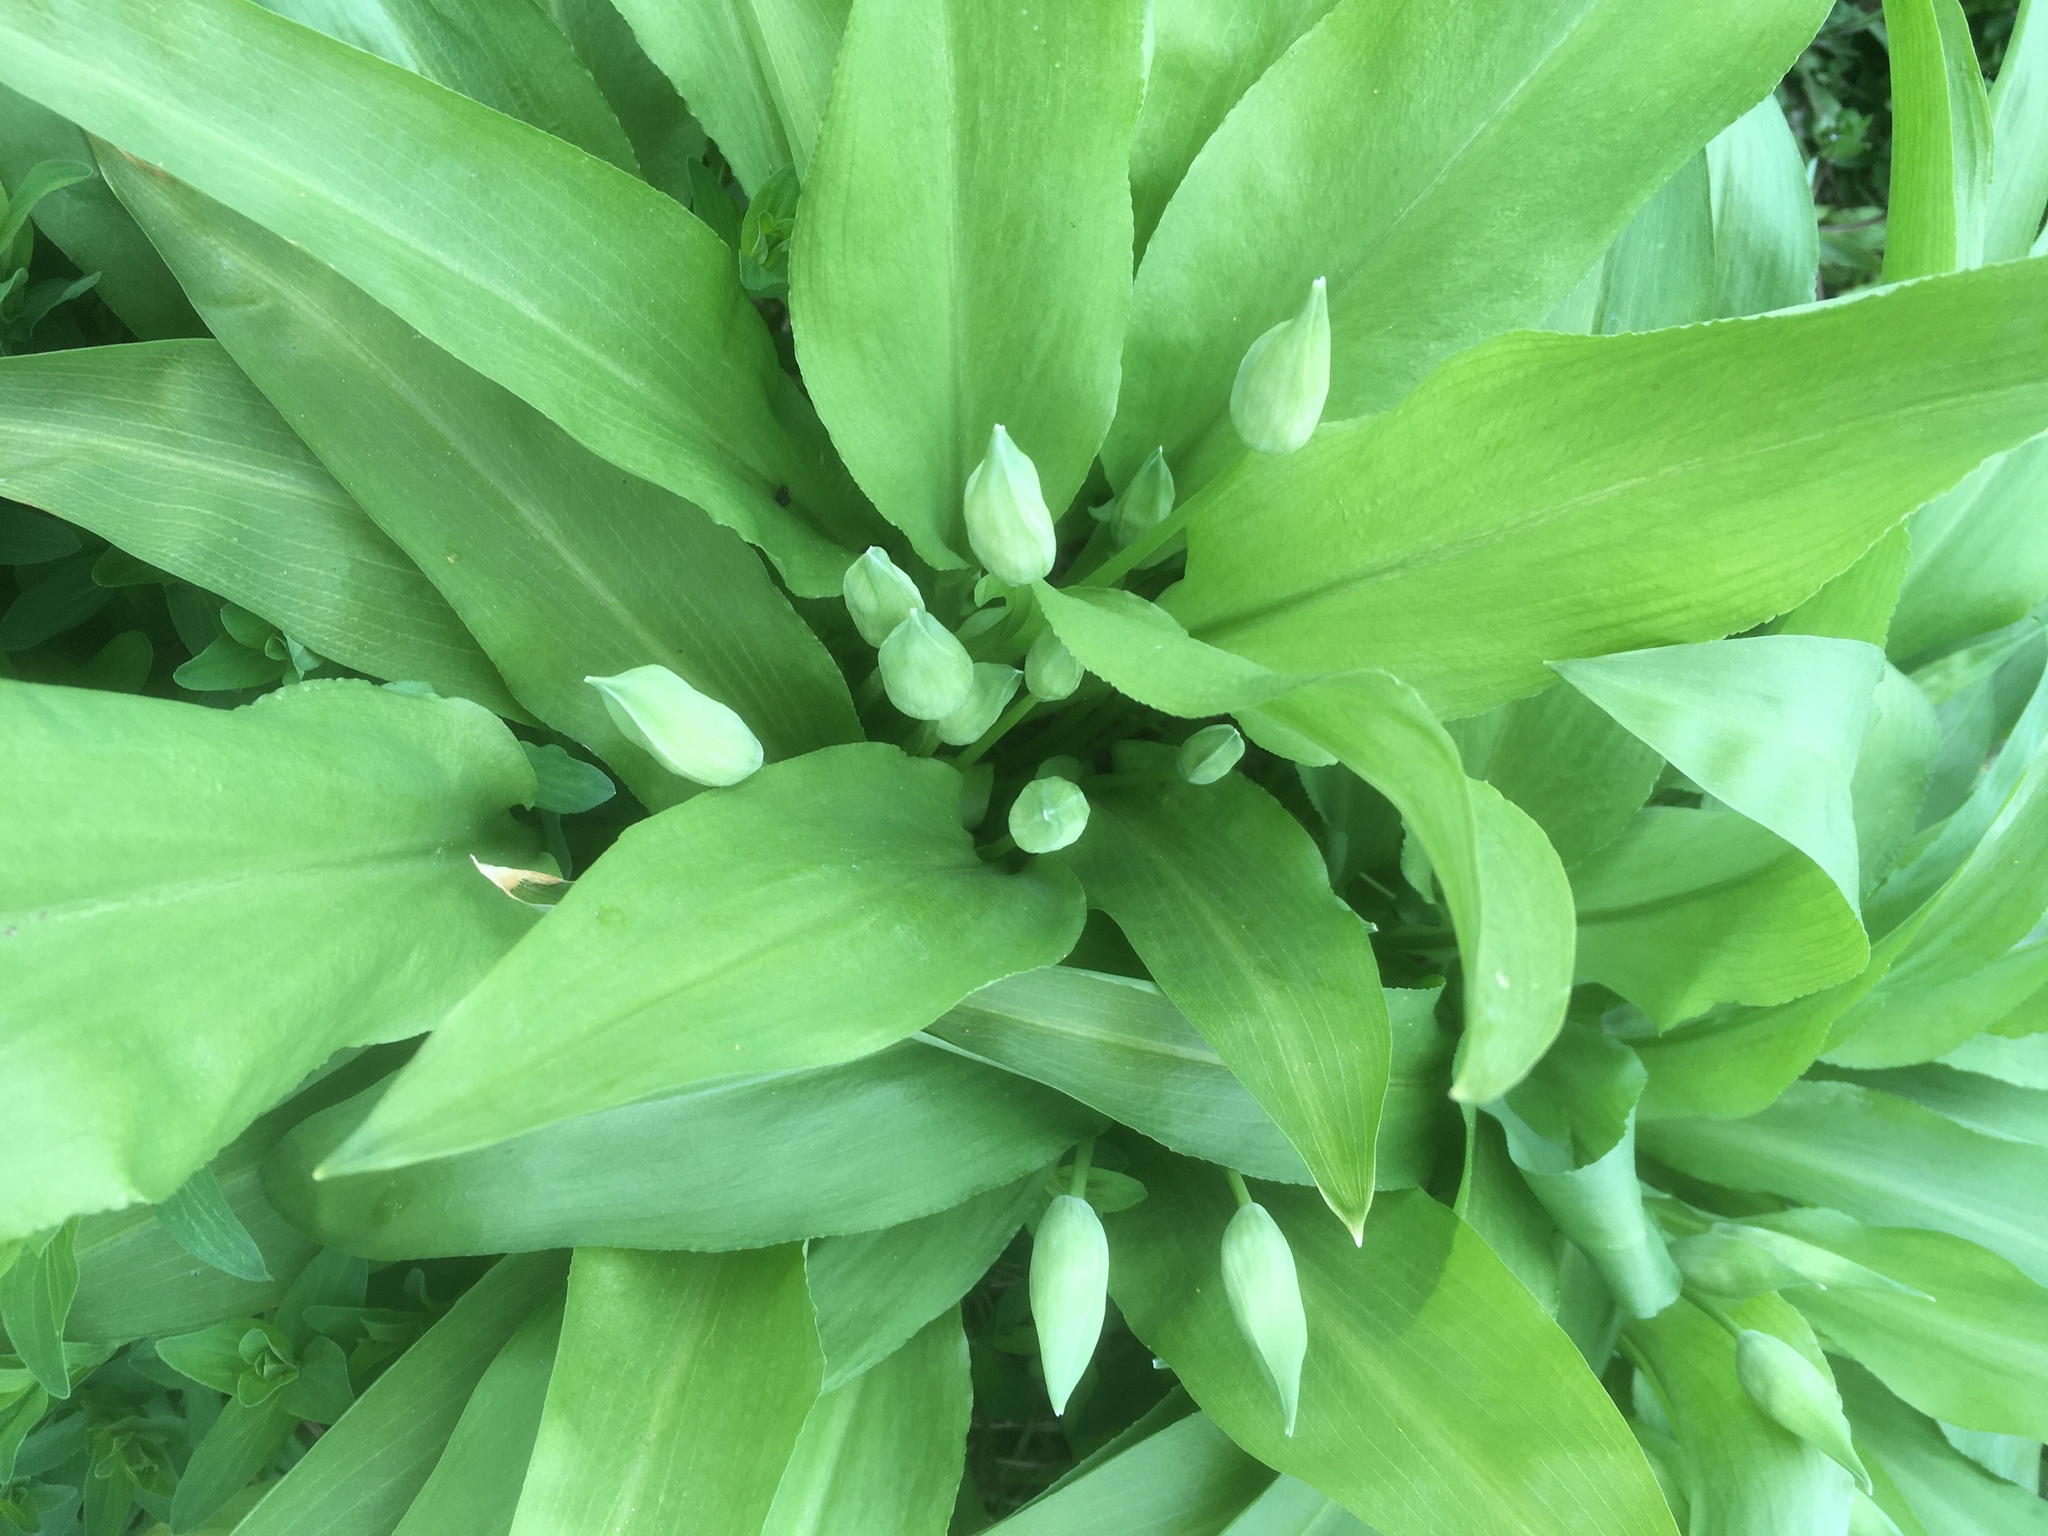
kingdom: Plantae
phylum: Tracheophyta
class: Liliopsida
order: Asparagales
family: Amaryllidaceae
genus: Allium
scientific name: Allium ursinum
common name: Ramsons
